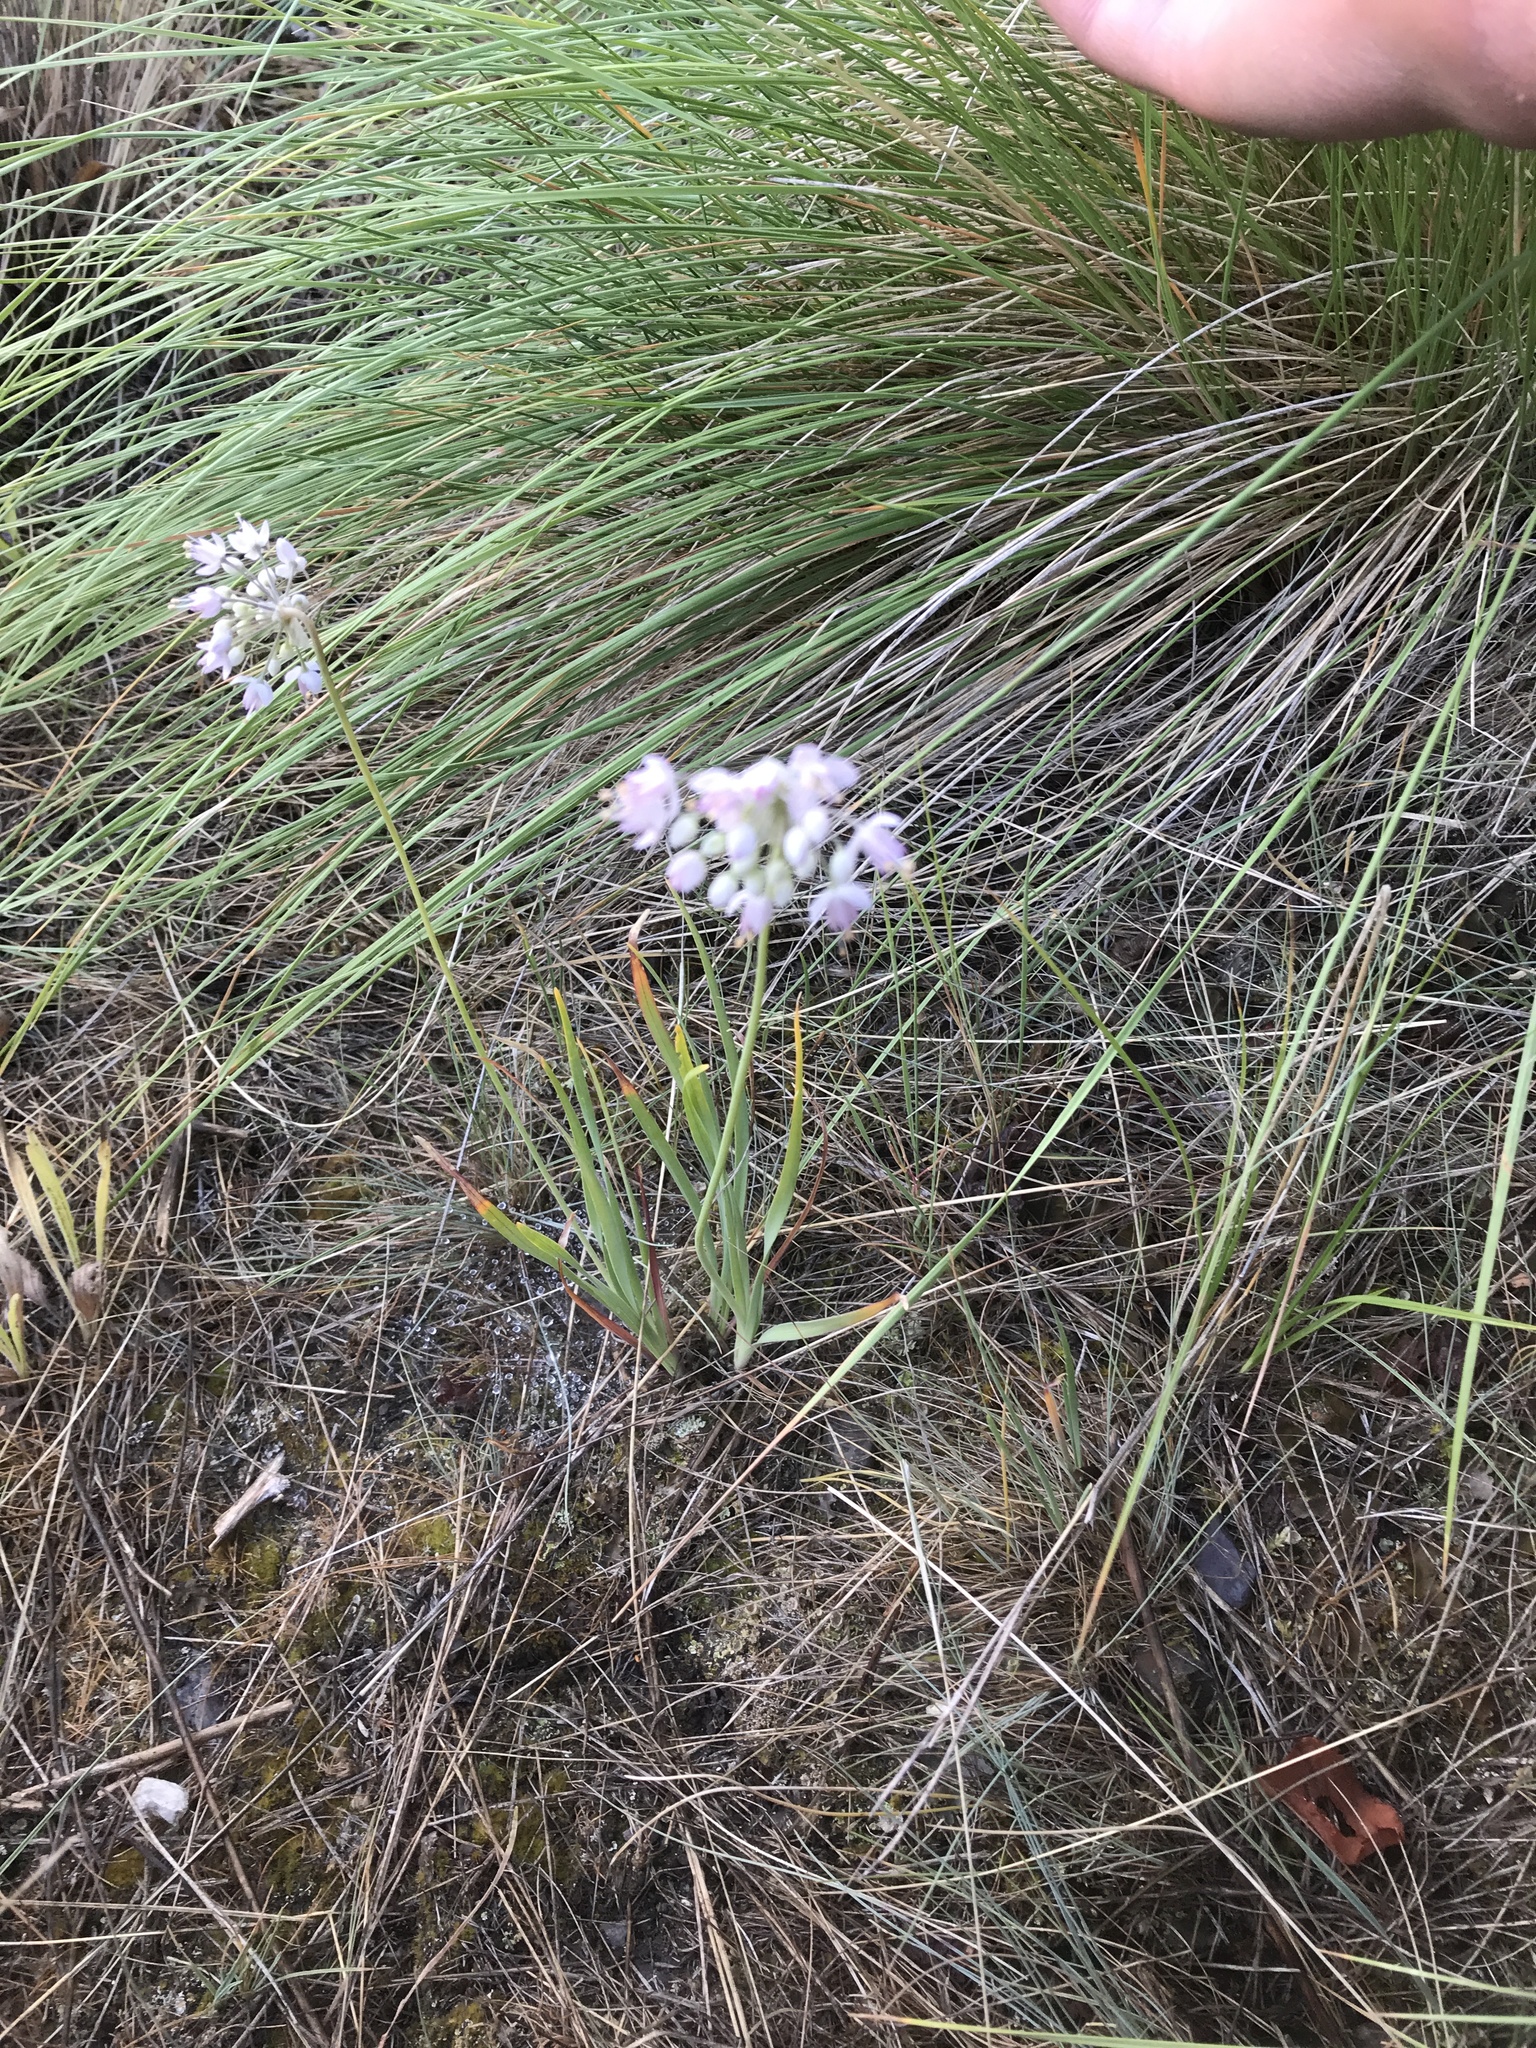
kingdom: Plantae
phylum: Tracheophyta
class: Liliopsida
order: Asparagales
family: Amaryllidaceae
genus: Allium
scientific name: Allium cernuum
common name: Nodding onion
